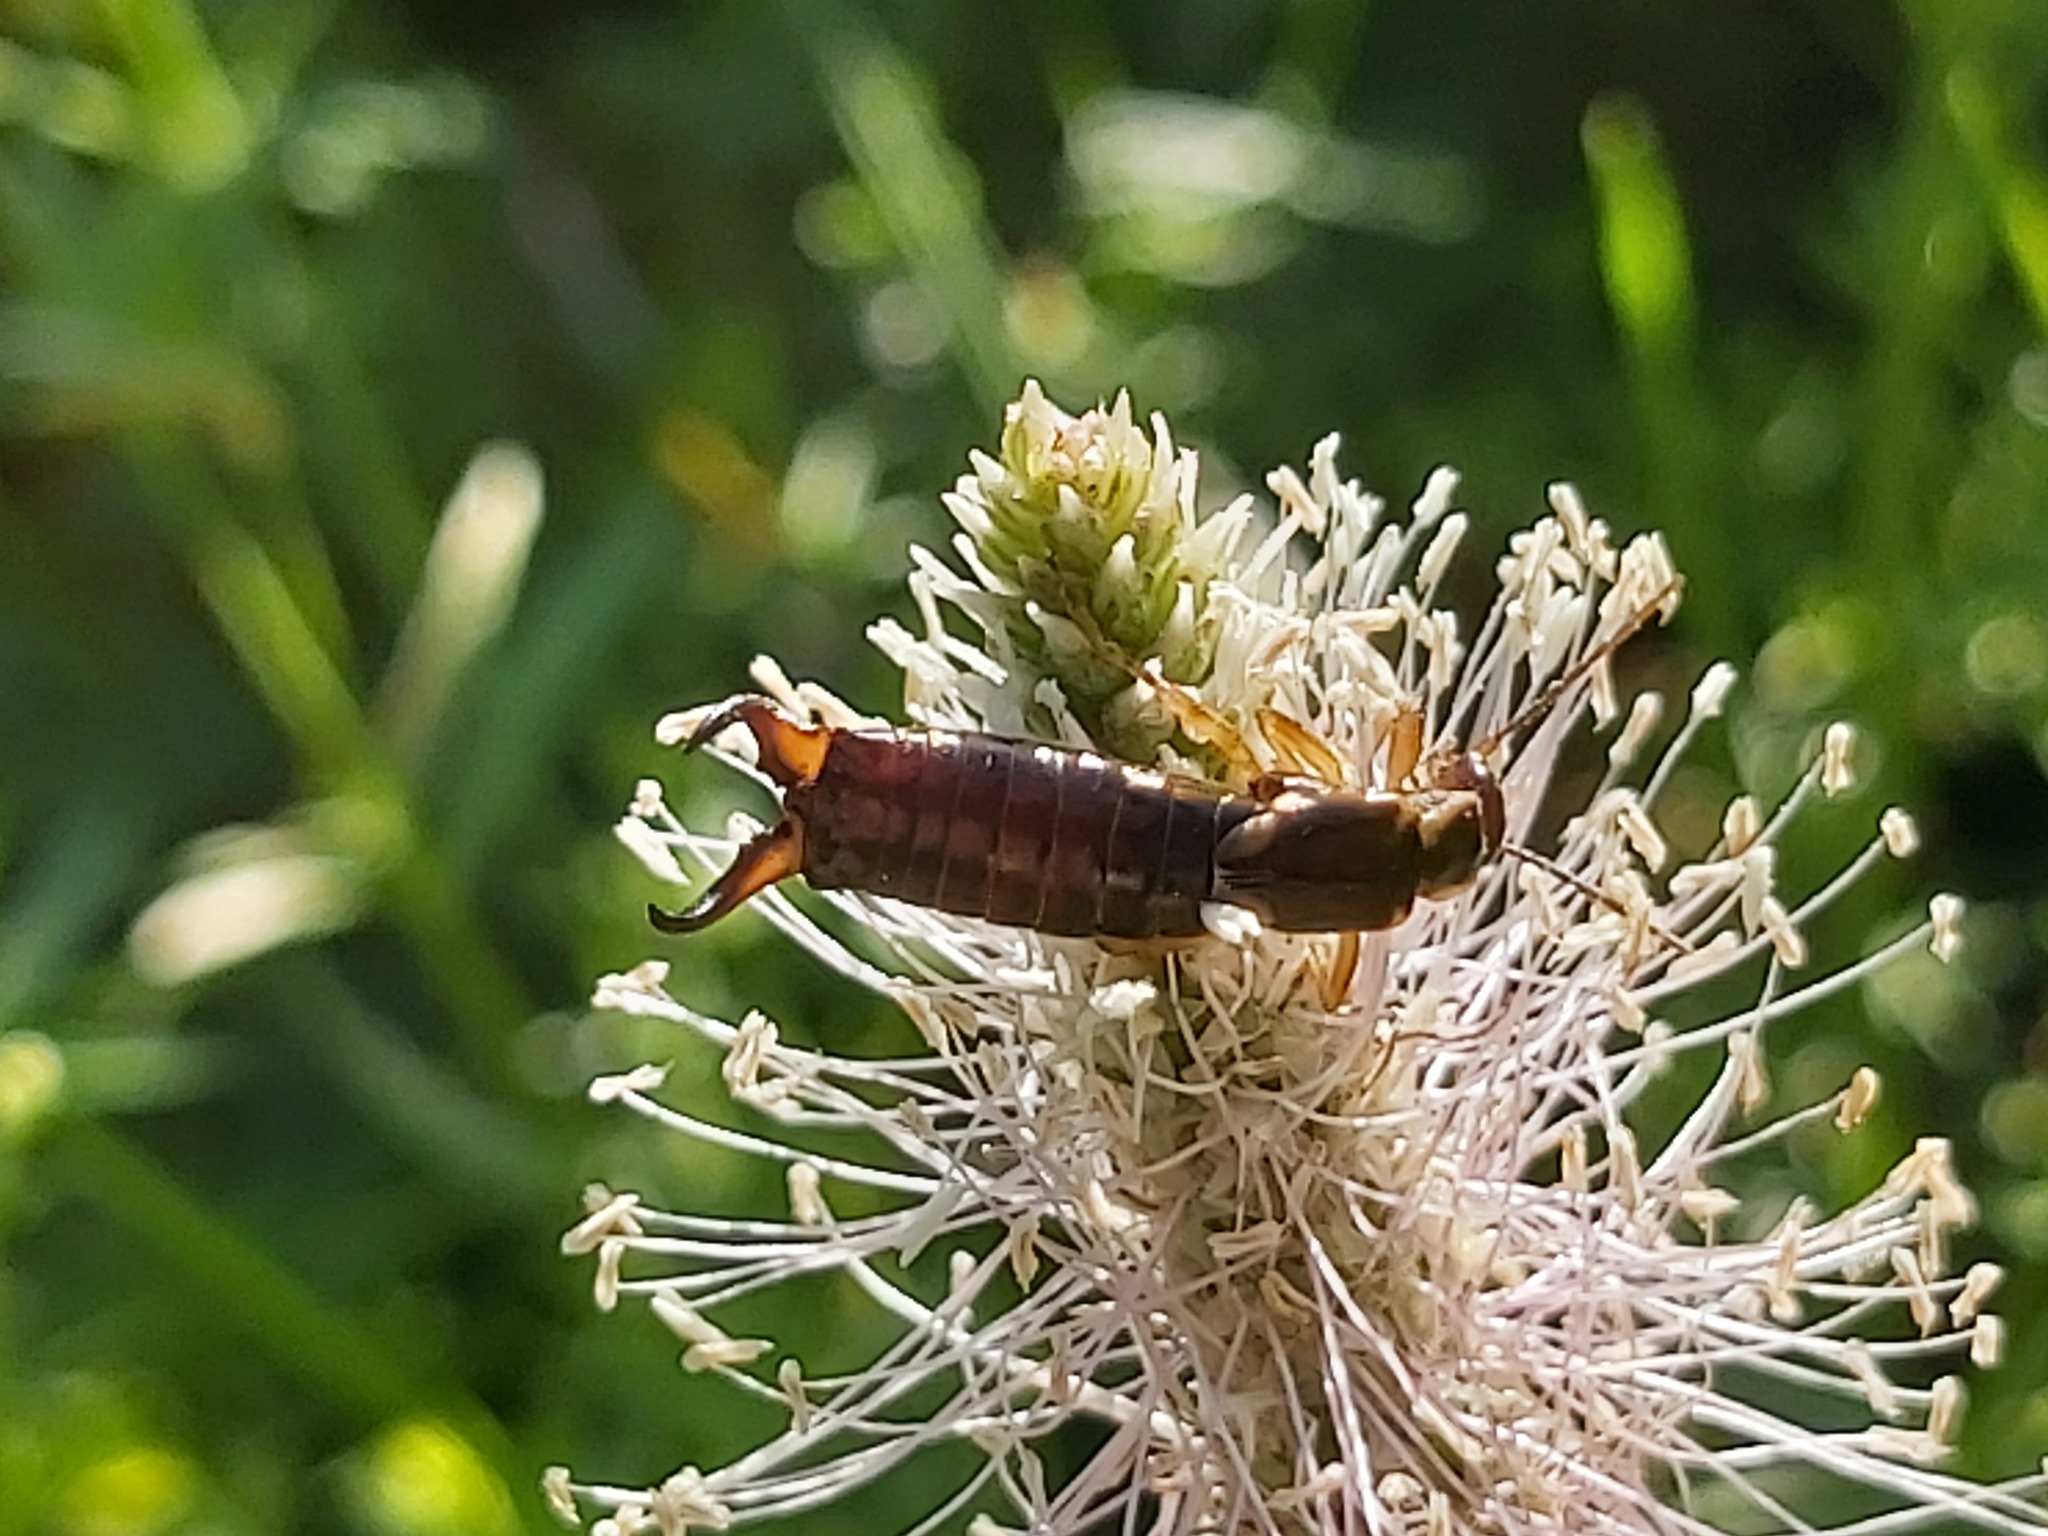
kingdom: Animalia
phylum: Arthropoda
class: Insecta
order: Dermaptera
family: Forficulidae
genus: Forficula
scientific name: Forficula
